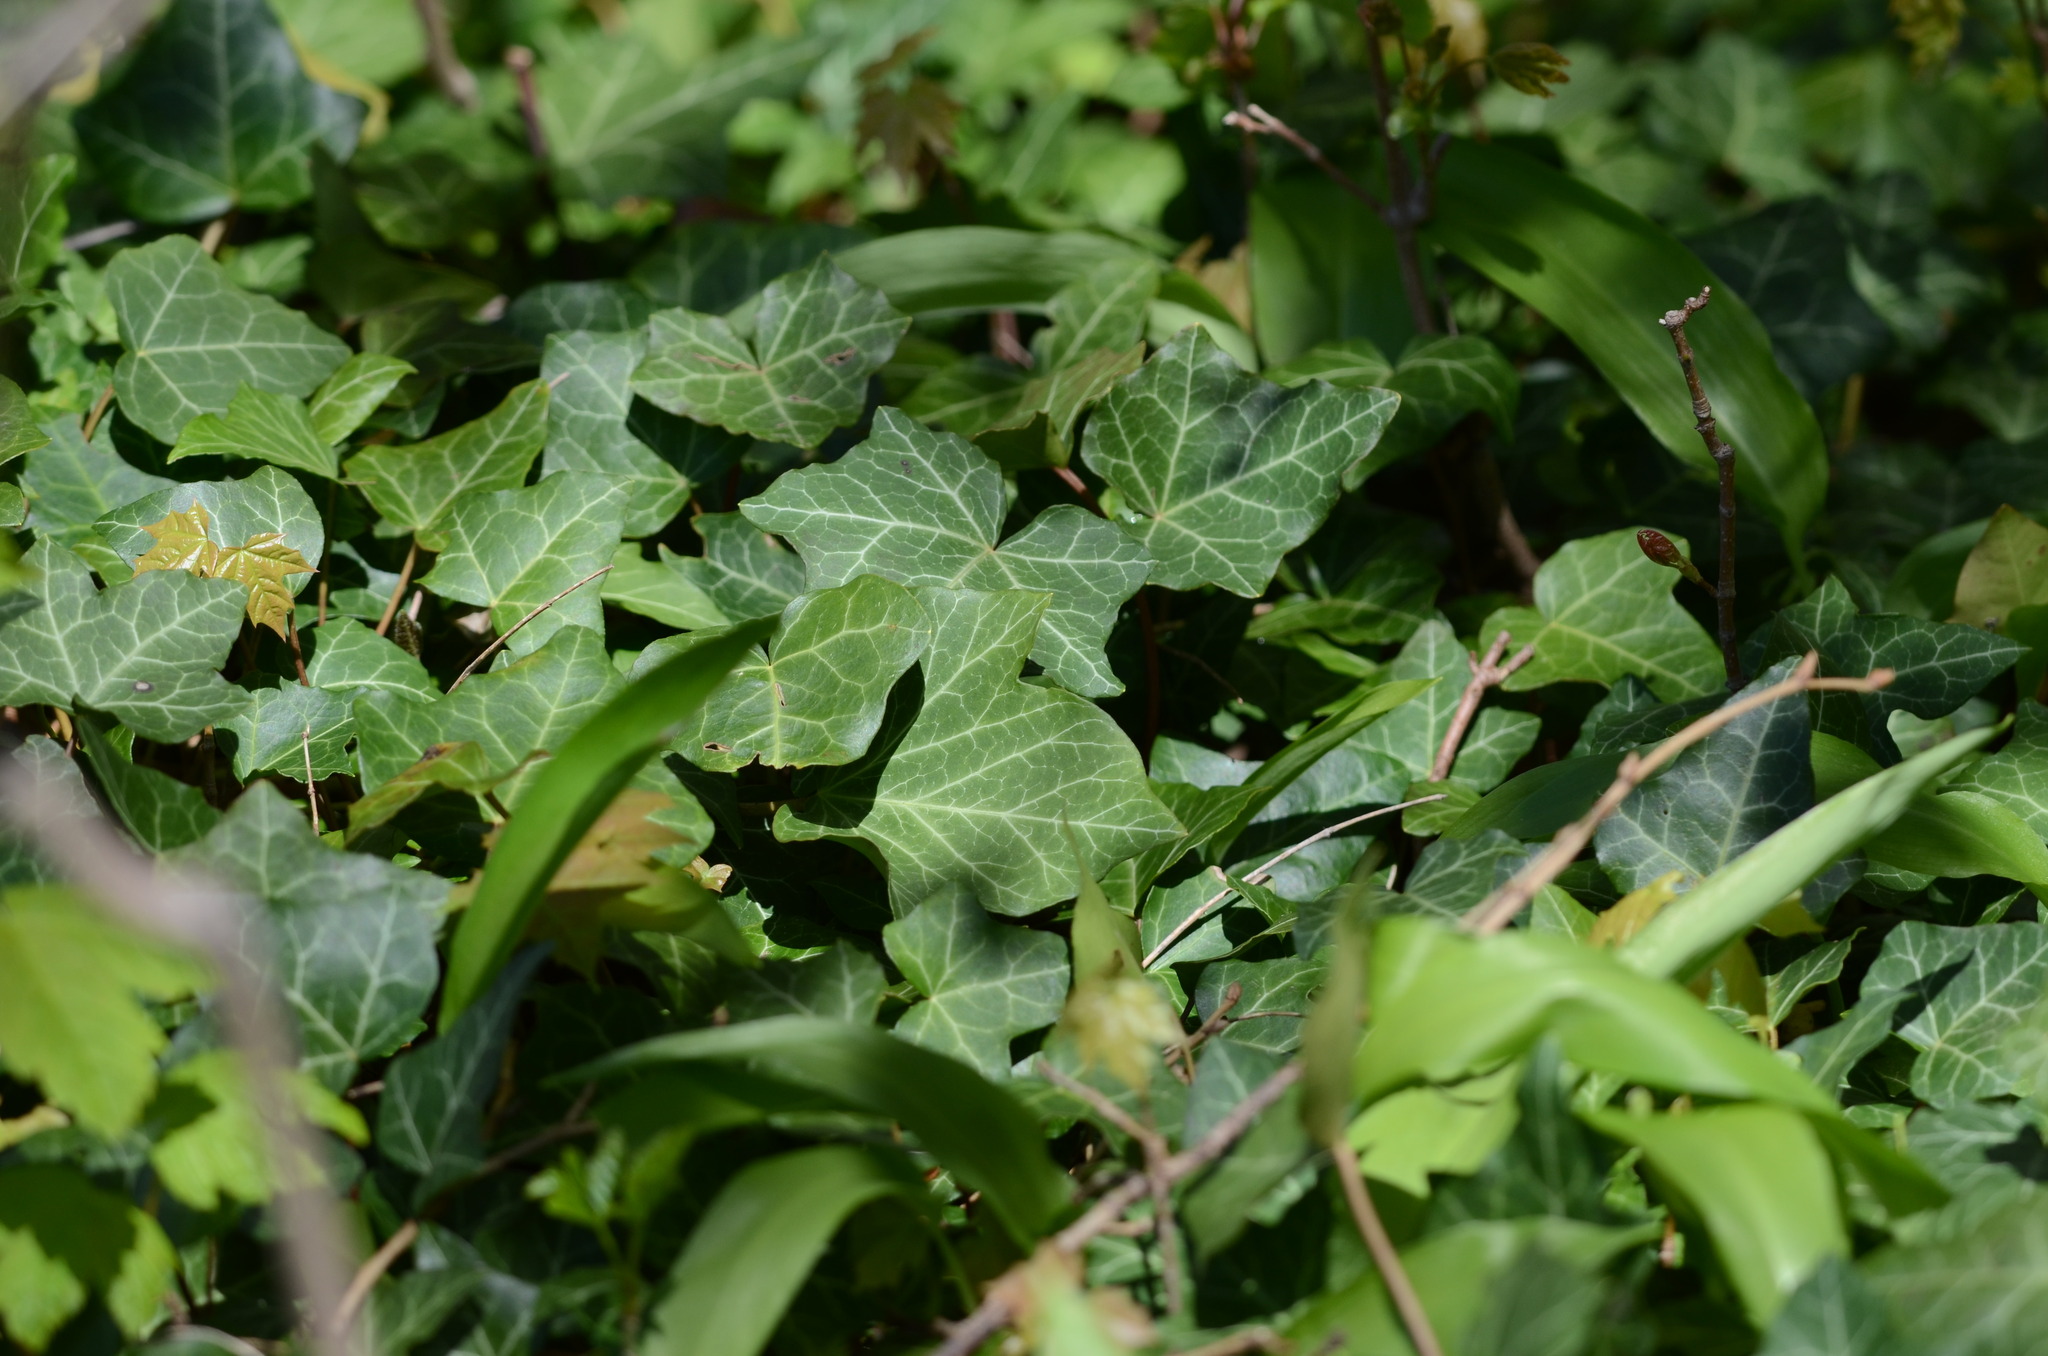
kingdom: Plantae
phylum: Tracheophyta
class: Magnoliopsida
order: Apiales
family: Araliaceae
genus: Hedera
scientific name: Hedera helix
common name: Ivy
